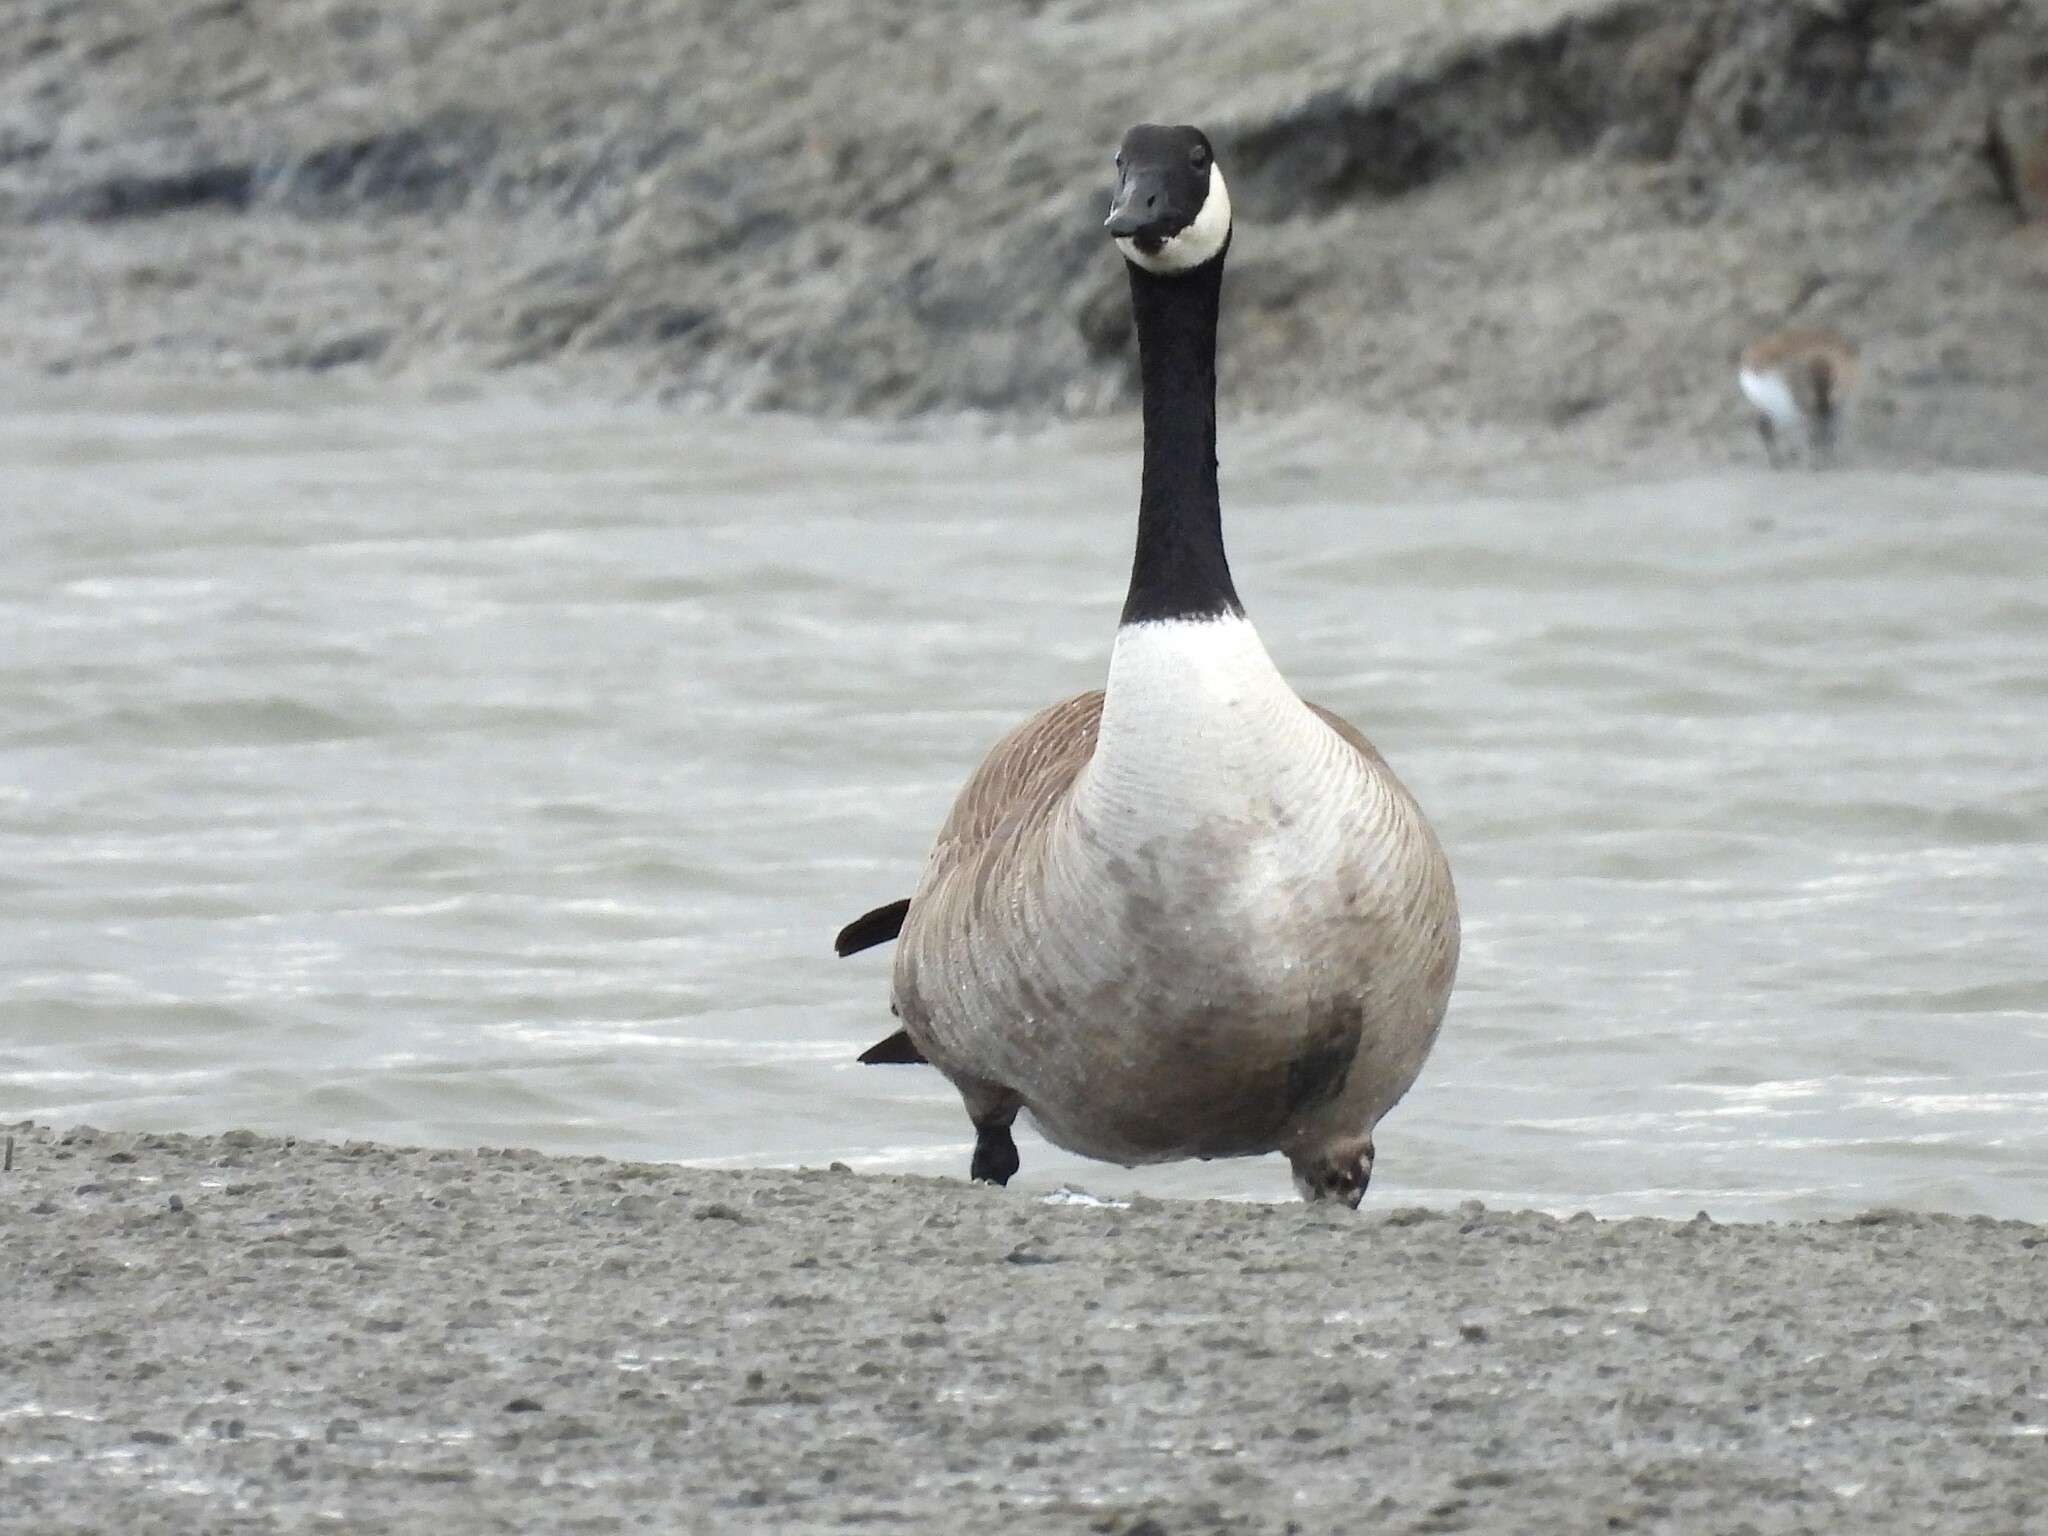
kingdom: Animalia
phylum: Chordata
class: Aves
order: Anseriformes
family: Anatidae
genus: Branta
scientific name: Branta canadensis
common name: Canada goose
